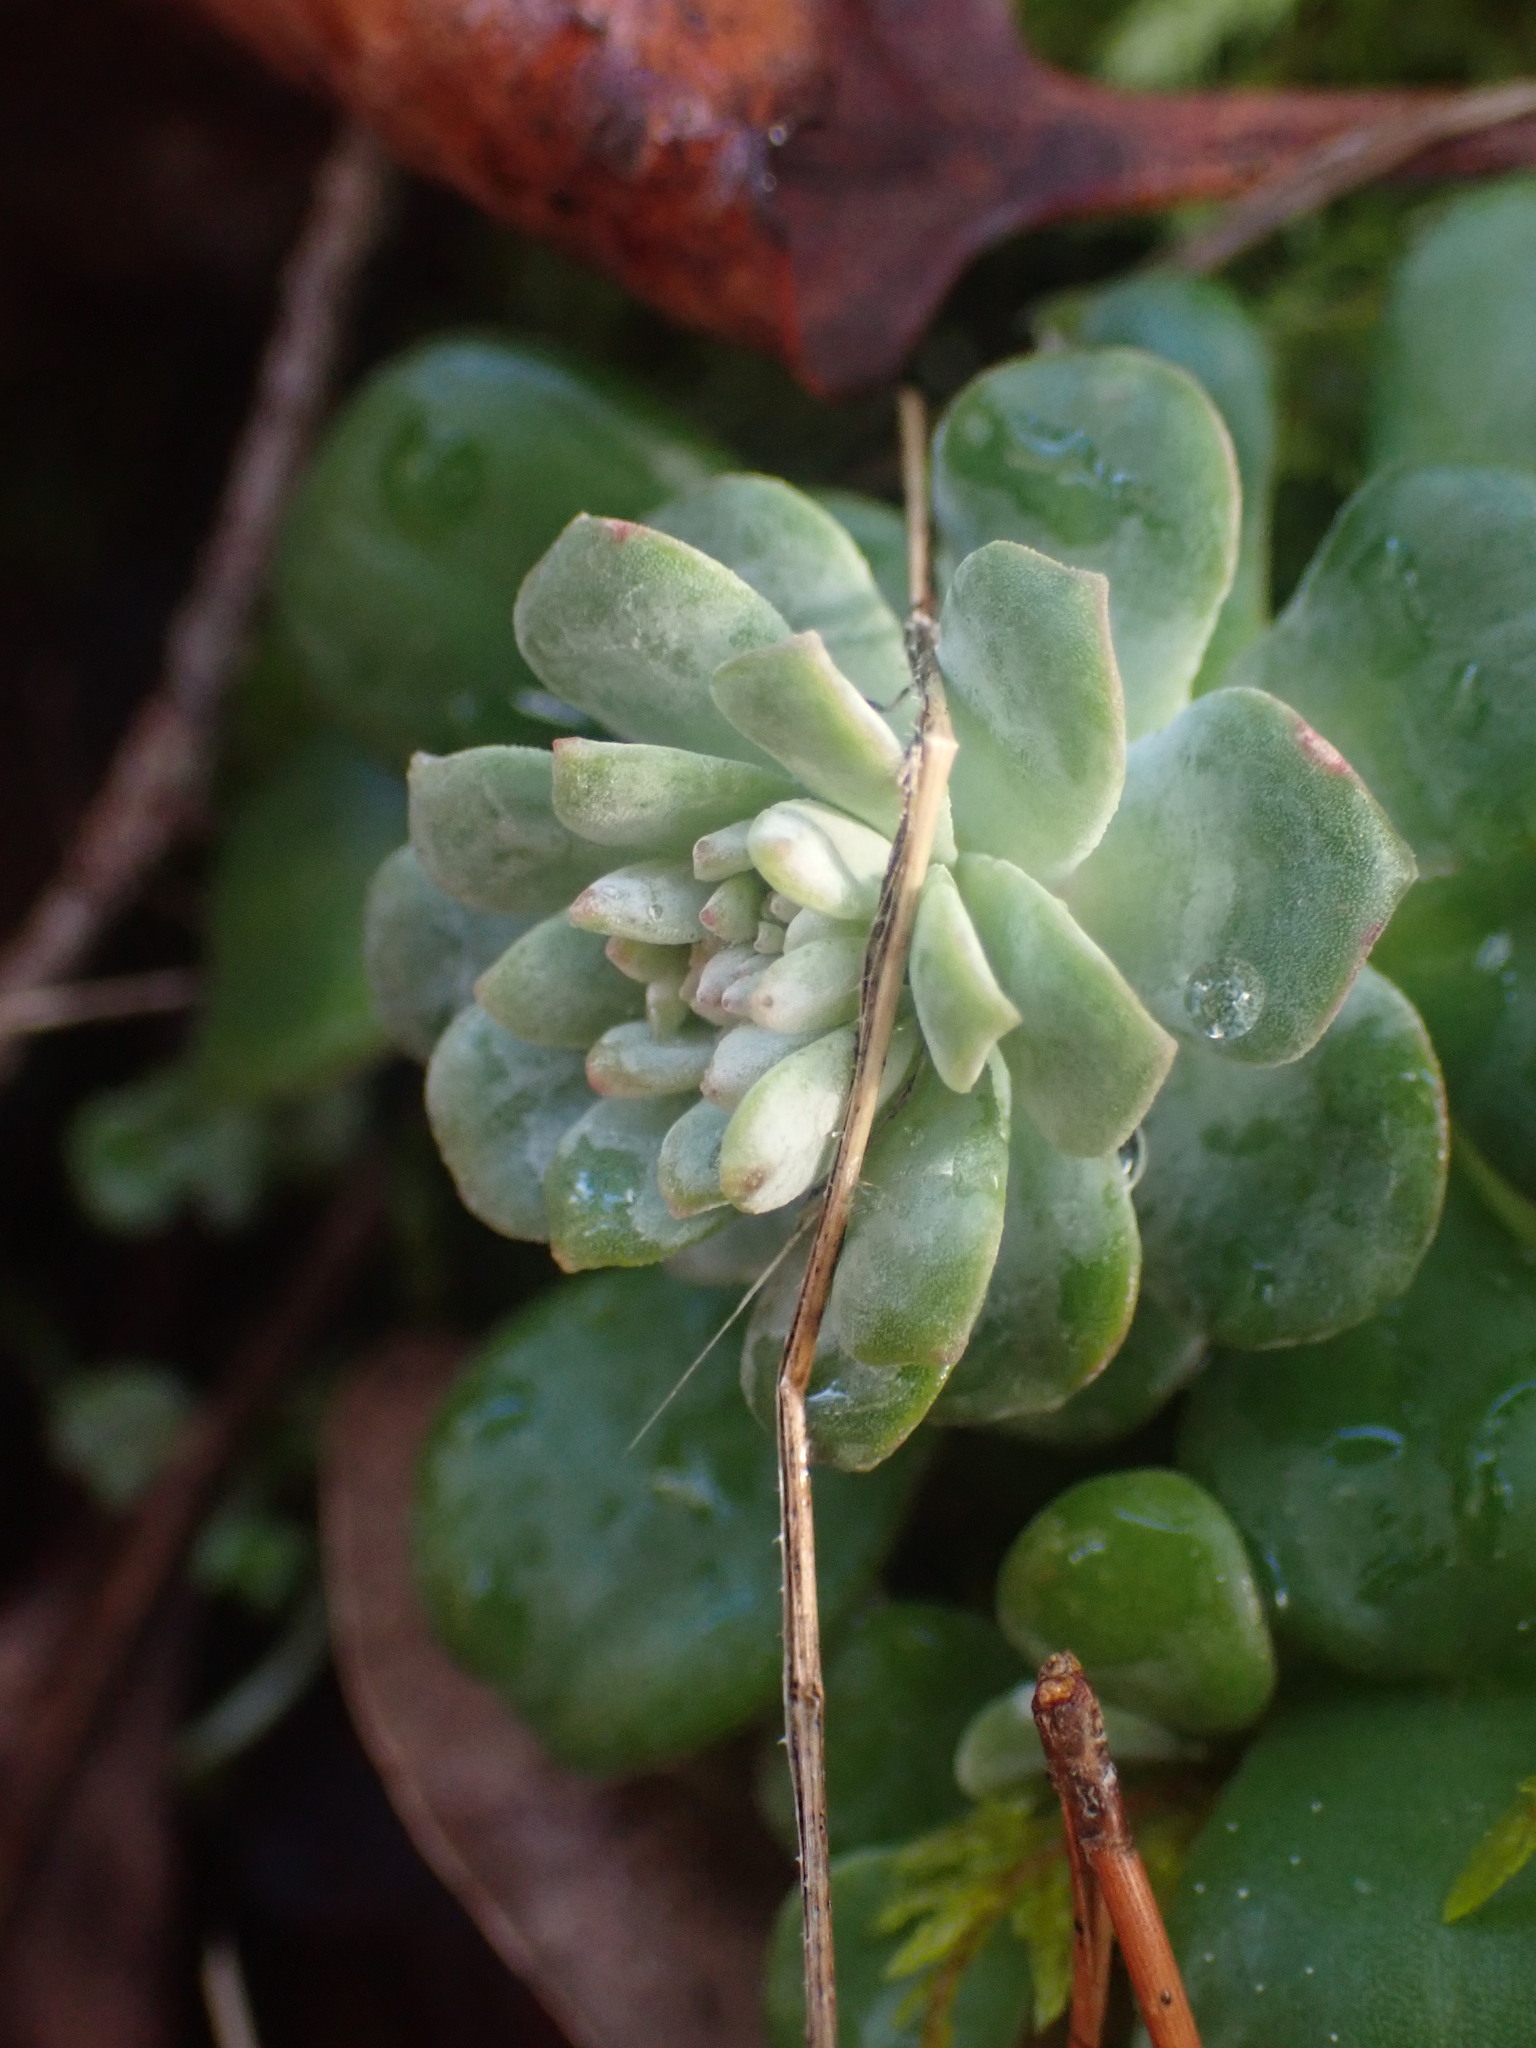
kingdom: Plantae
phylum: Tracheophyta
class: Magnoliopsida
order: Saxifragales
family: Crassulaceae
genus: Sedum
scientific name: Sedum spathulifolium
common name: Colorado stonecrop
